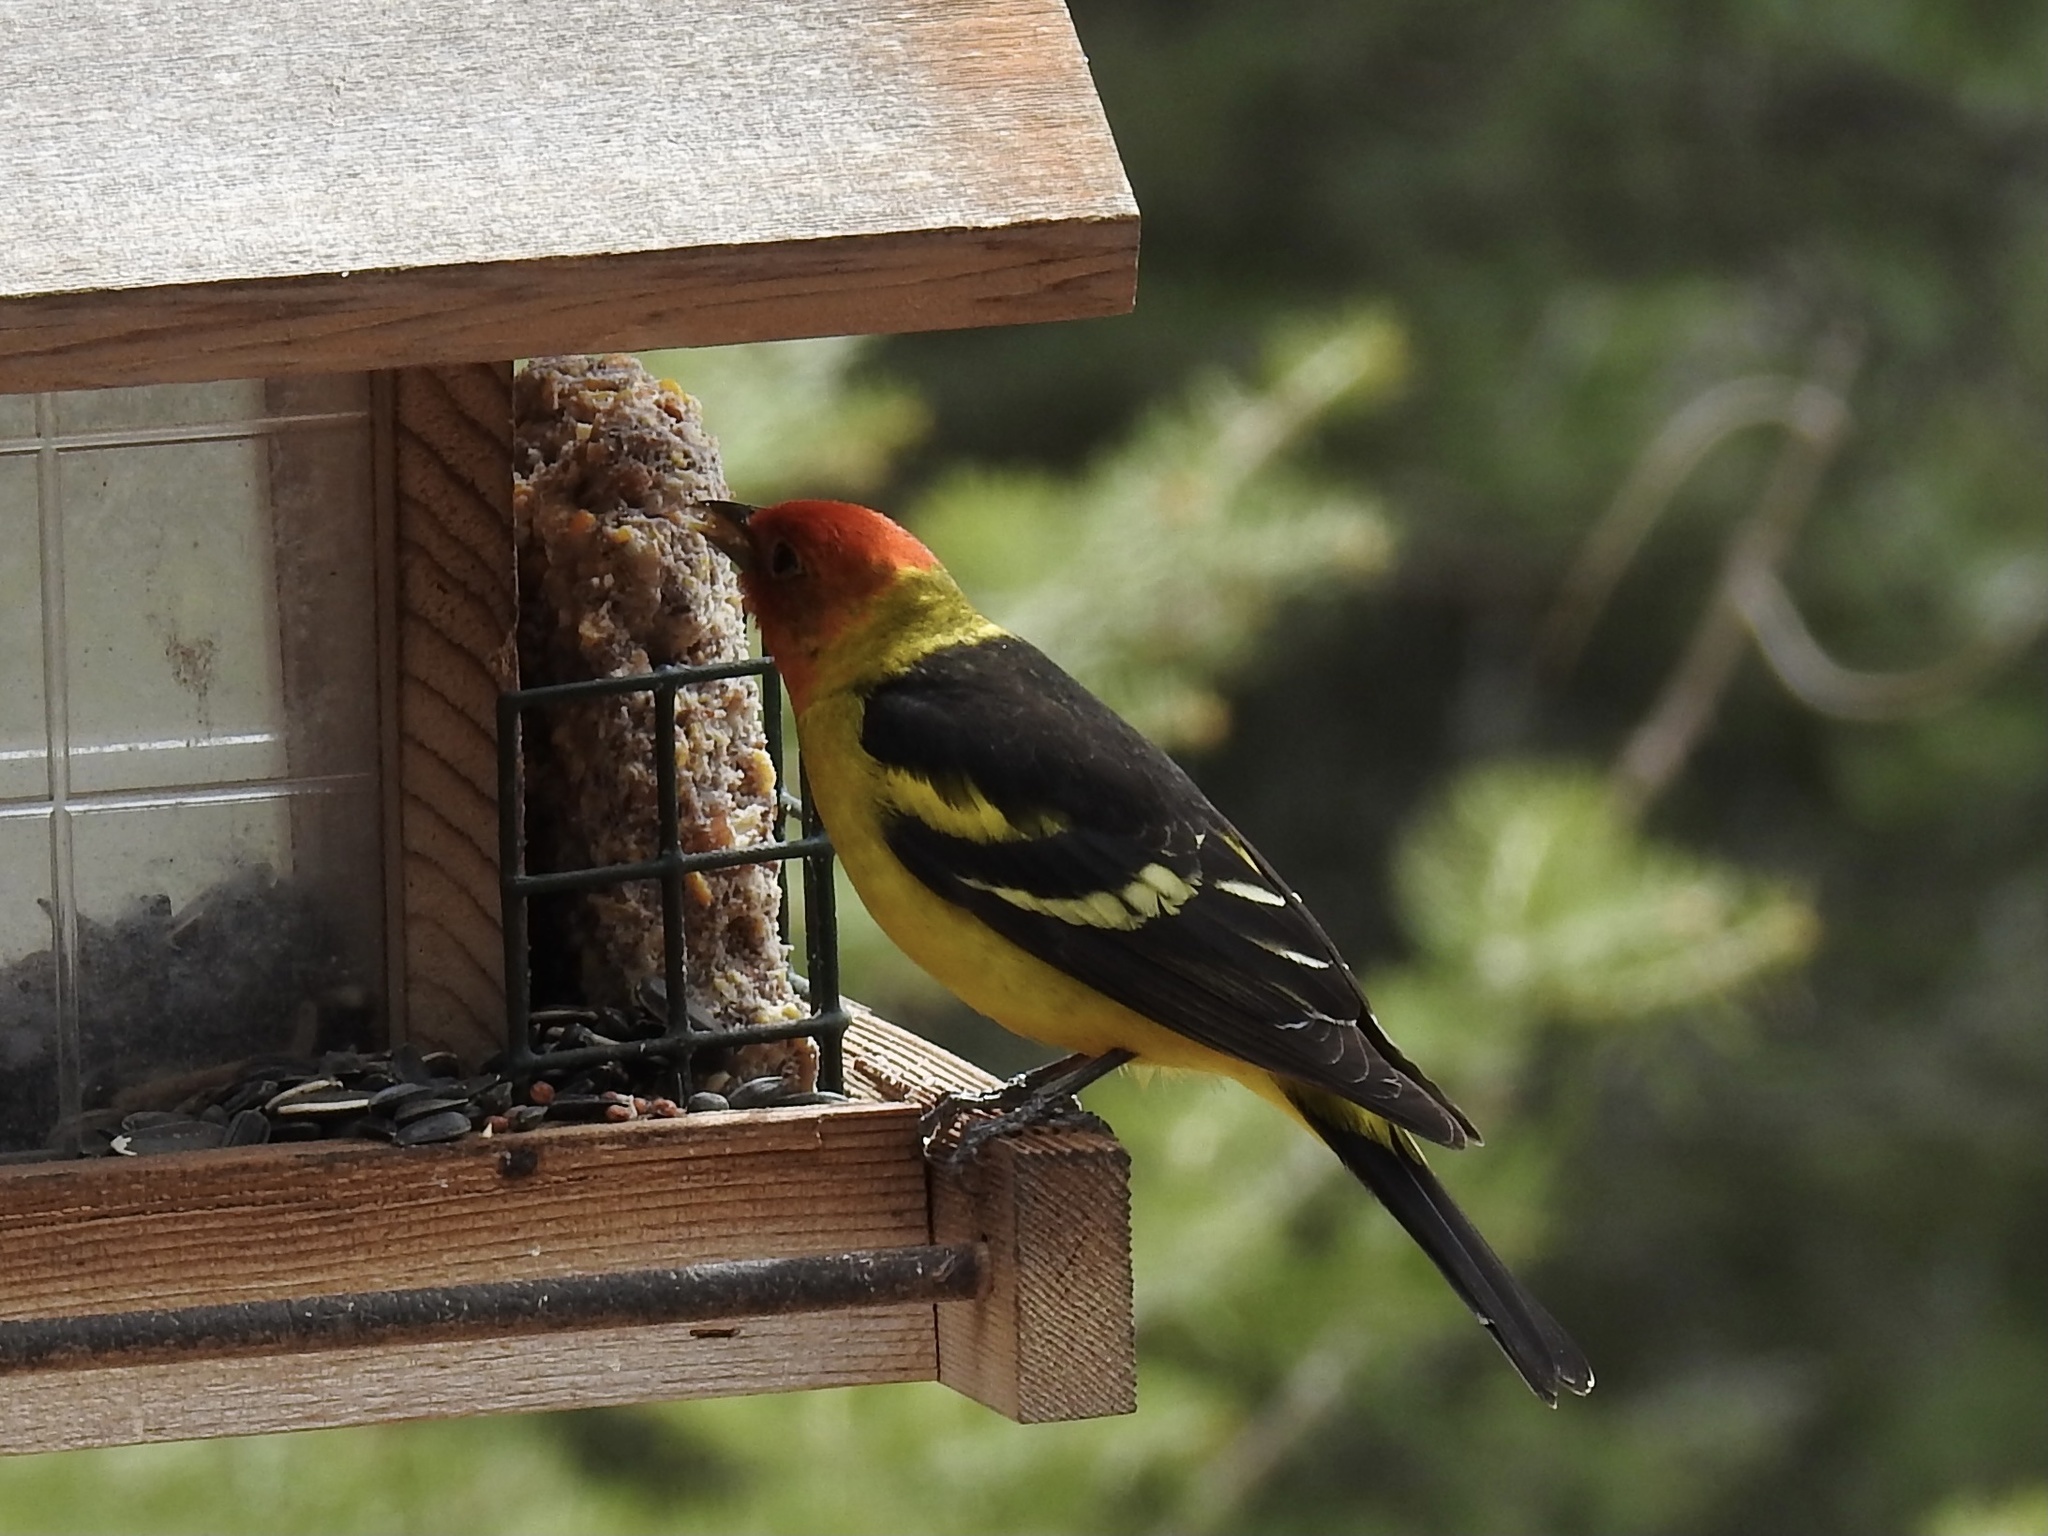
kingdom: Animalia
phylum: Chordata
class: Aves
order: Passeriformes
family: Cardinalidae
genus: Piranga
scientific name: Piranga ludoviciana
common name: Western tanager
